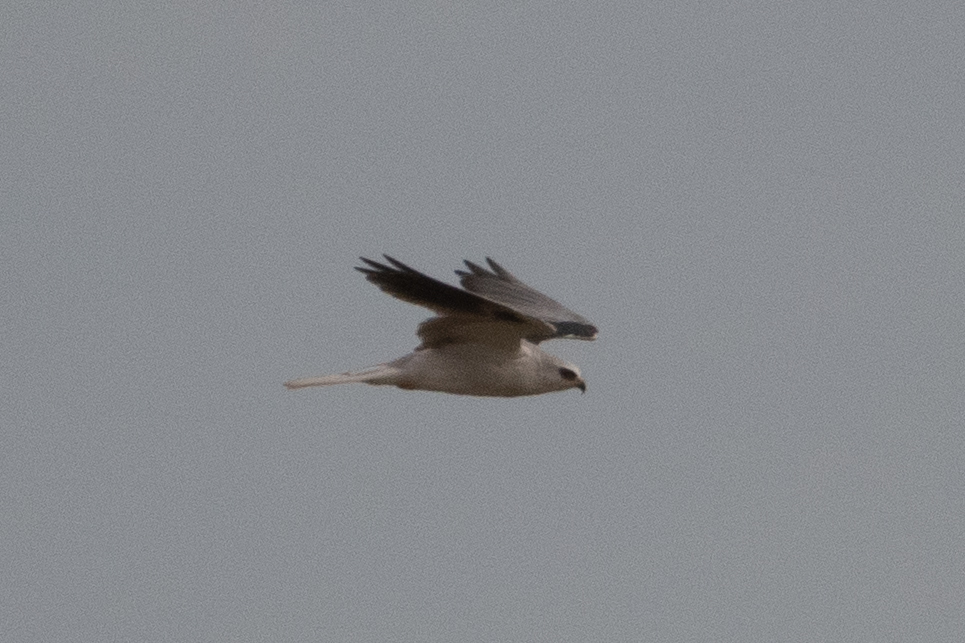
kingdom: Animalia
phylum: Chordata
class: Aves
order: Accipitriformes
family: Accipitridae
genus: Elanus
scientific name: Elanus leucurus
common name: White-tailed kite
